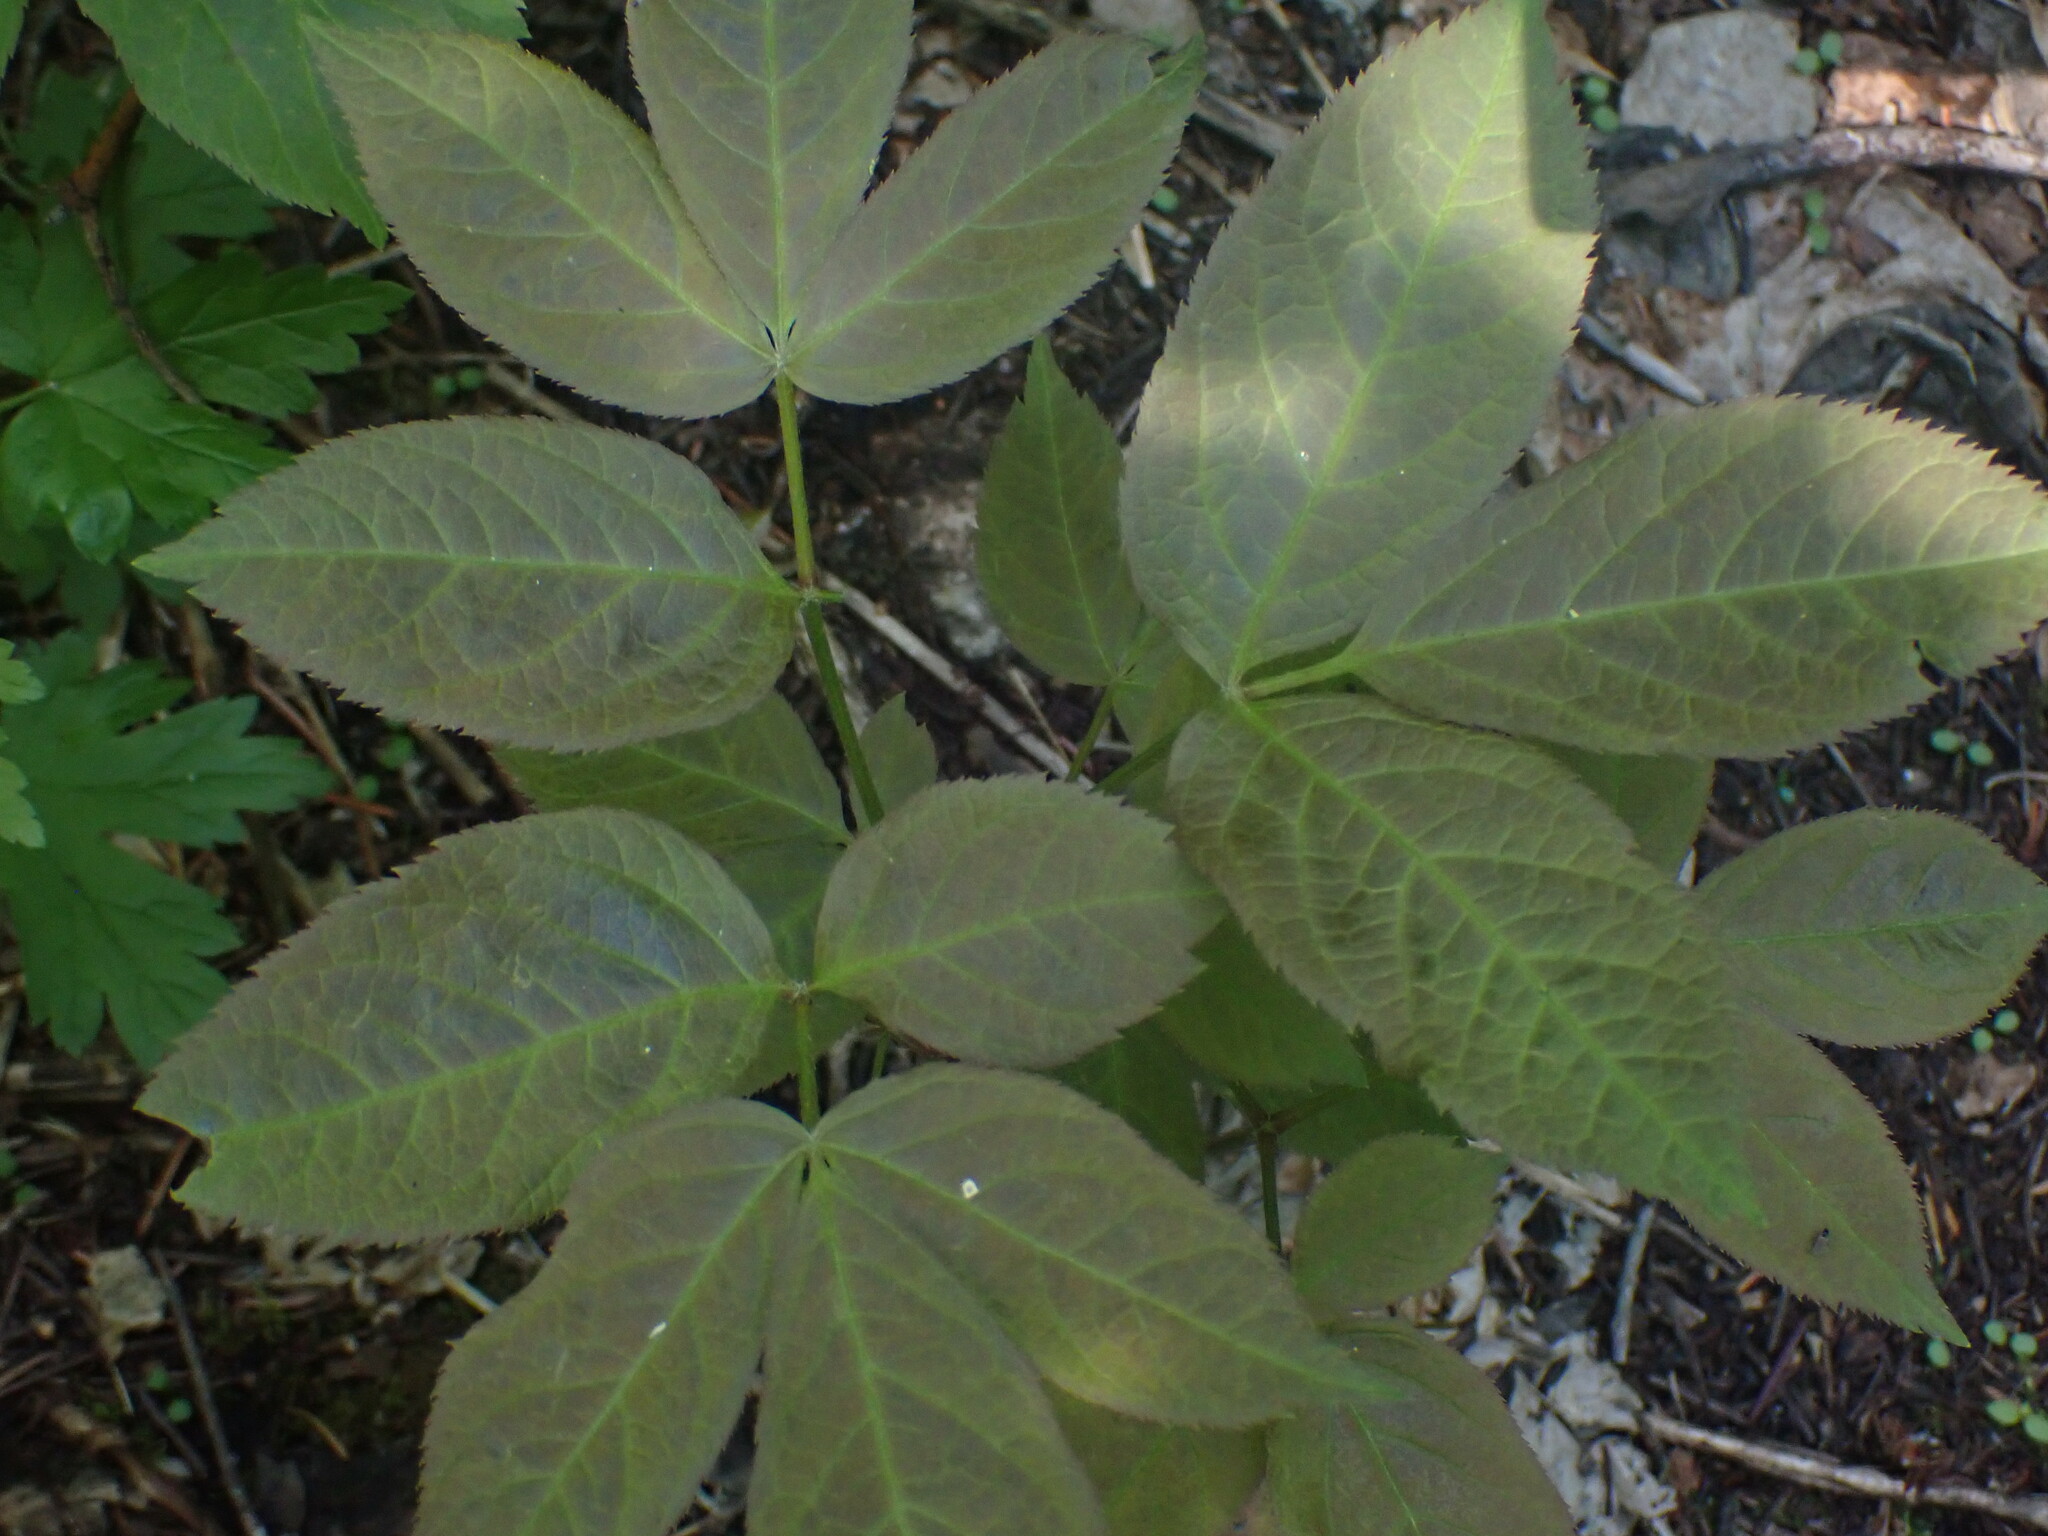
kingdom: Plantae
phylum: Tracheophyta
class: Magnoliopsida
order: Apiales
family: Araliaceae
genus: Aralia
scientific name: Aralia nudicaulis
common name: Wild sarsaparilla
